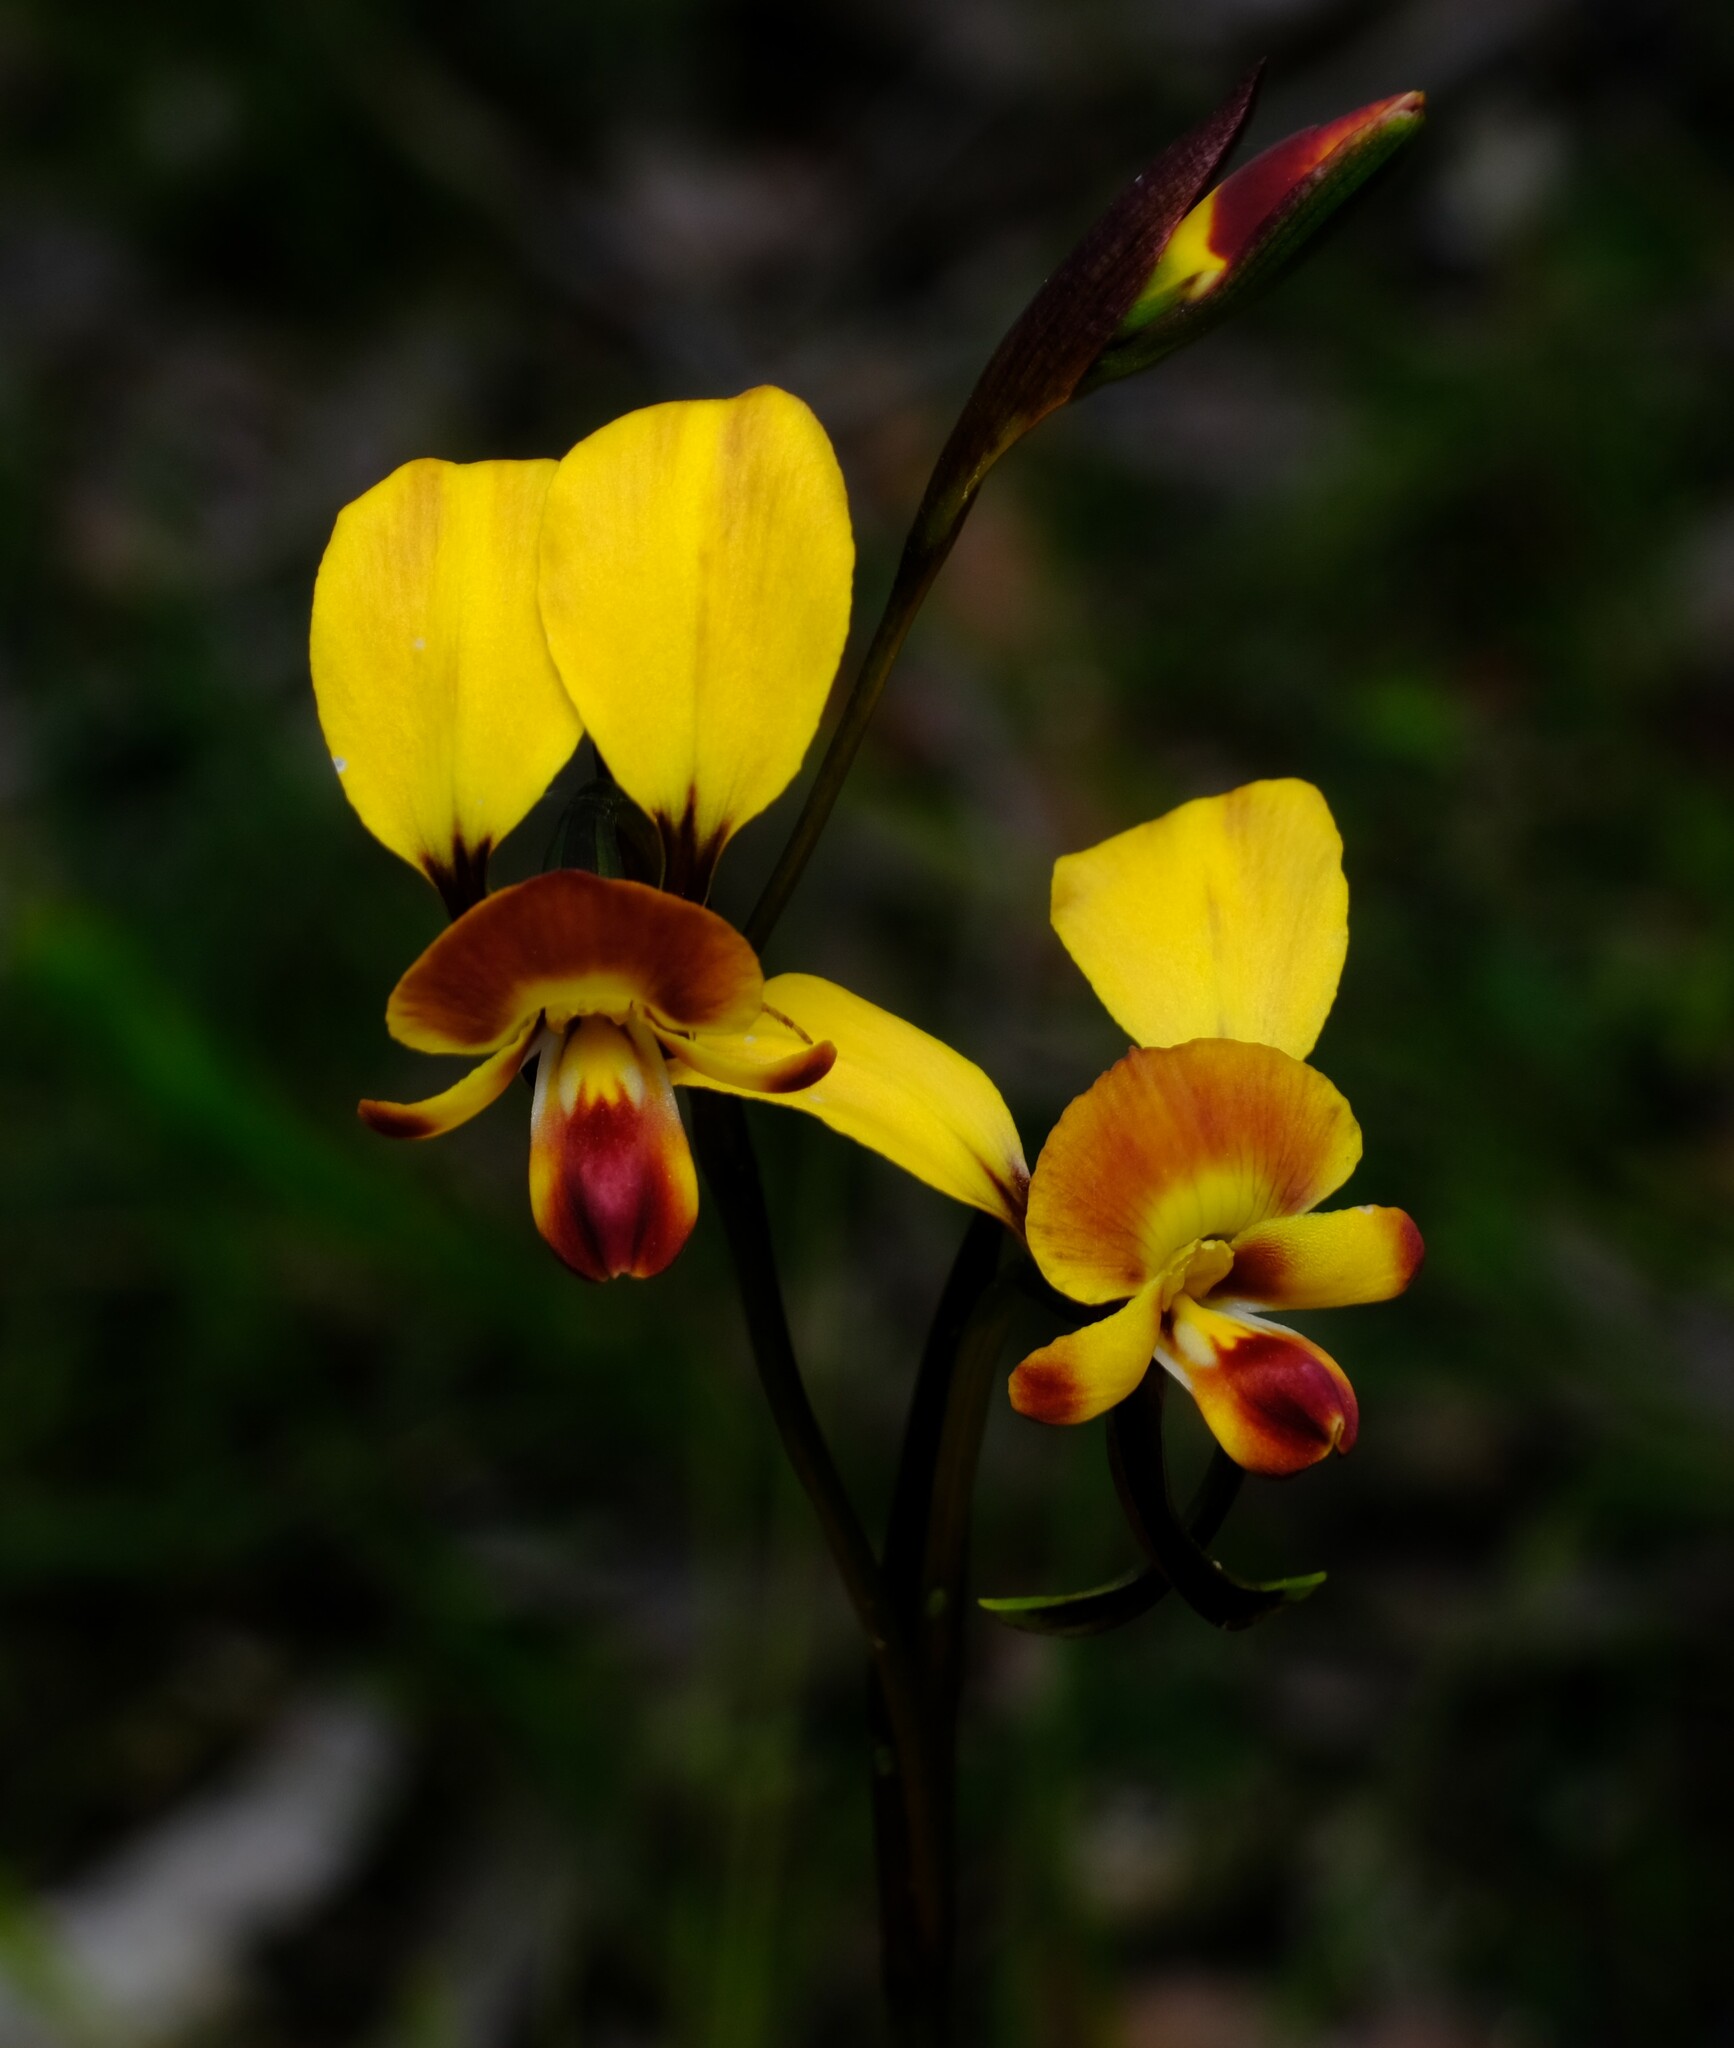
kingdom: Plantae
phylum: Tracheophyta
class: Liliopsida
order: Asparagales
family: Orchidaceae
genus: Diuris
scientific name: Diuris orientis
